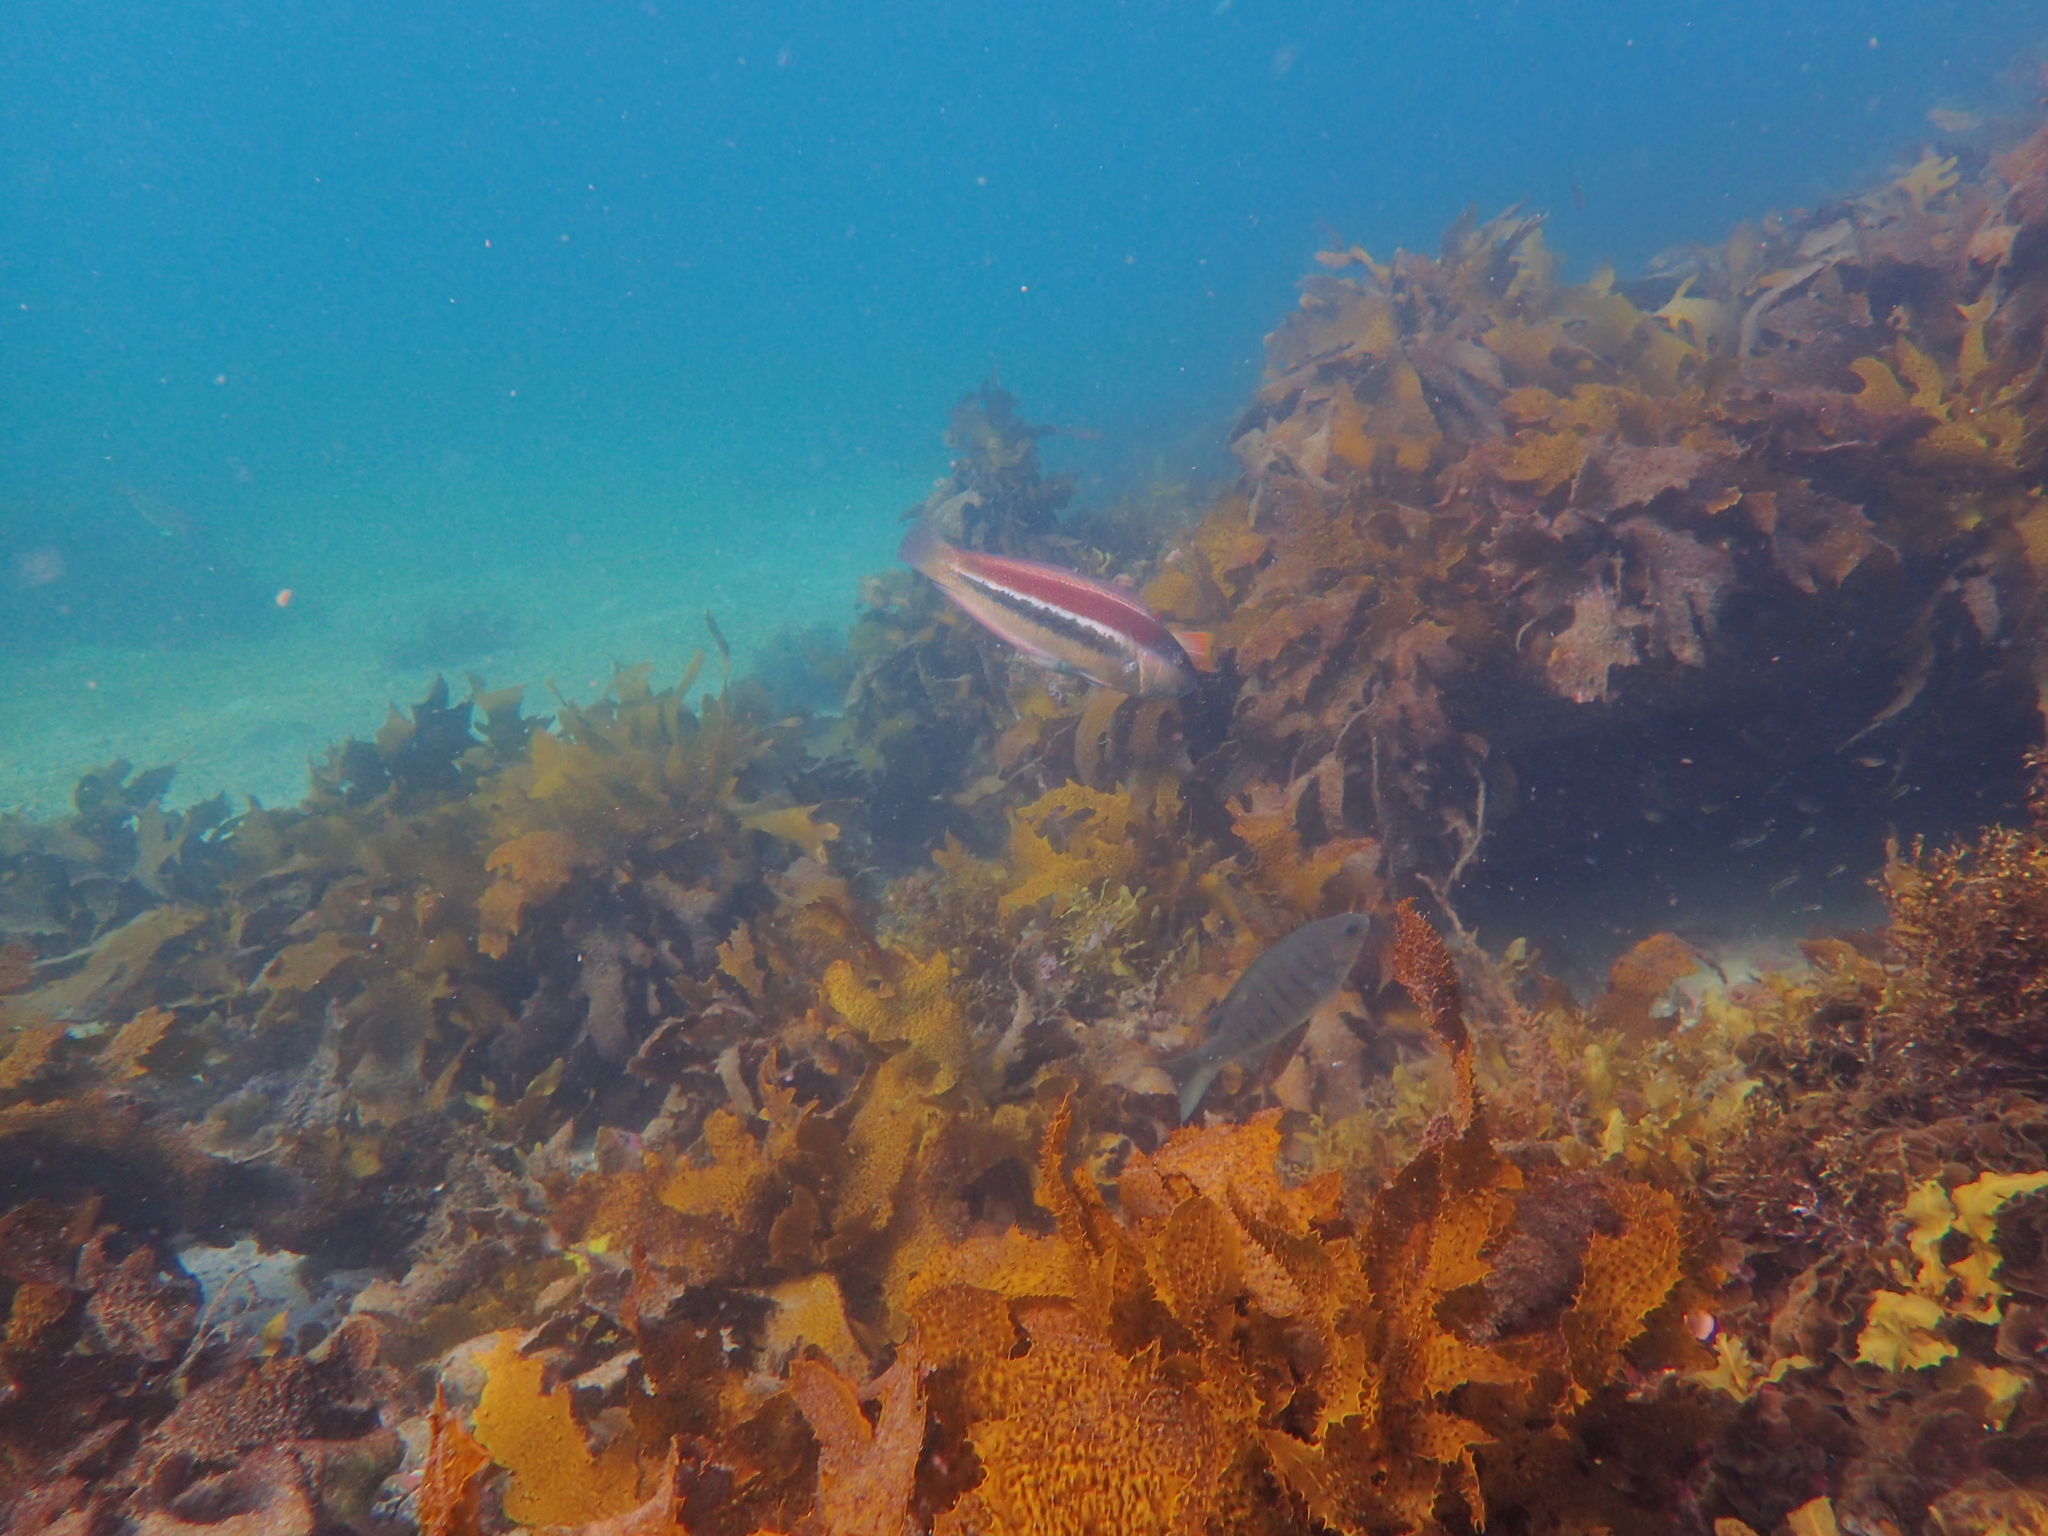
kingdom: Animalia
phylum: Chordata
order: Perciformes
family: Labridae
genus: Ophthalmolepis
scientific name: Ophthalmolepis lineolata
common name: Maori wrasse
